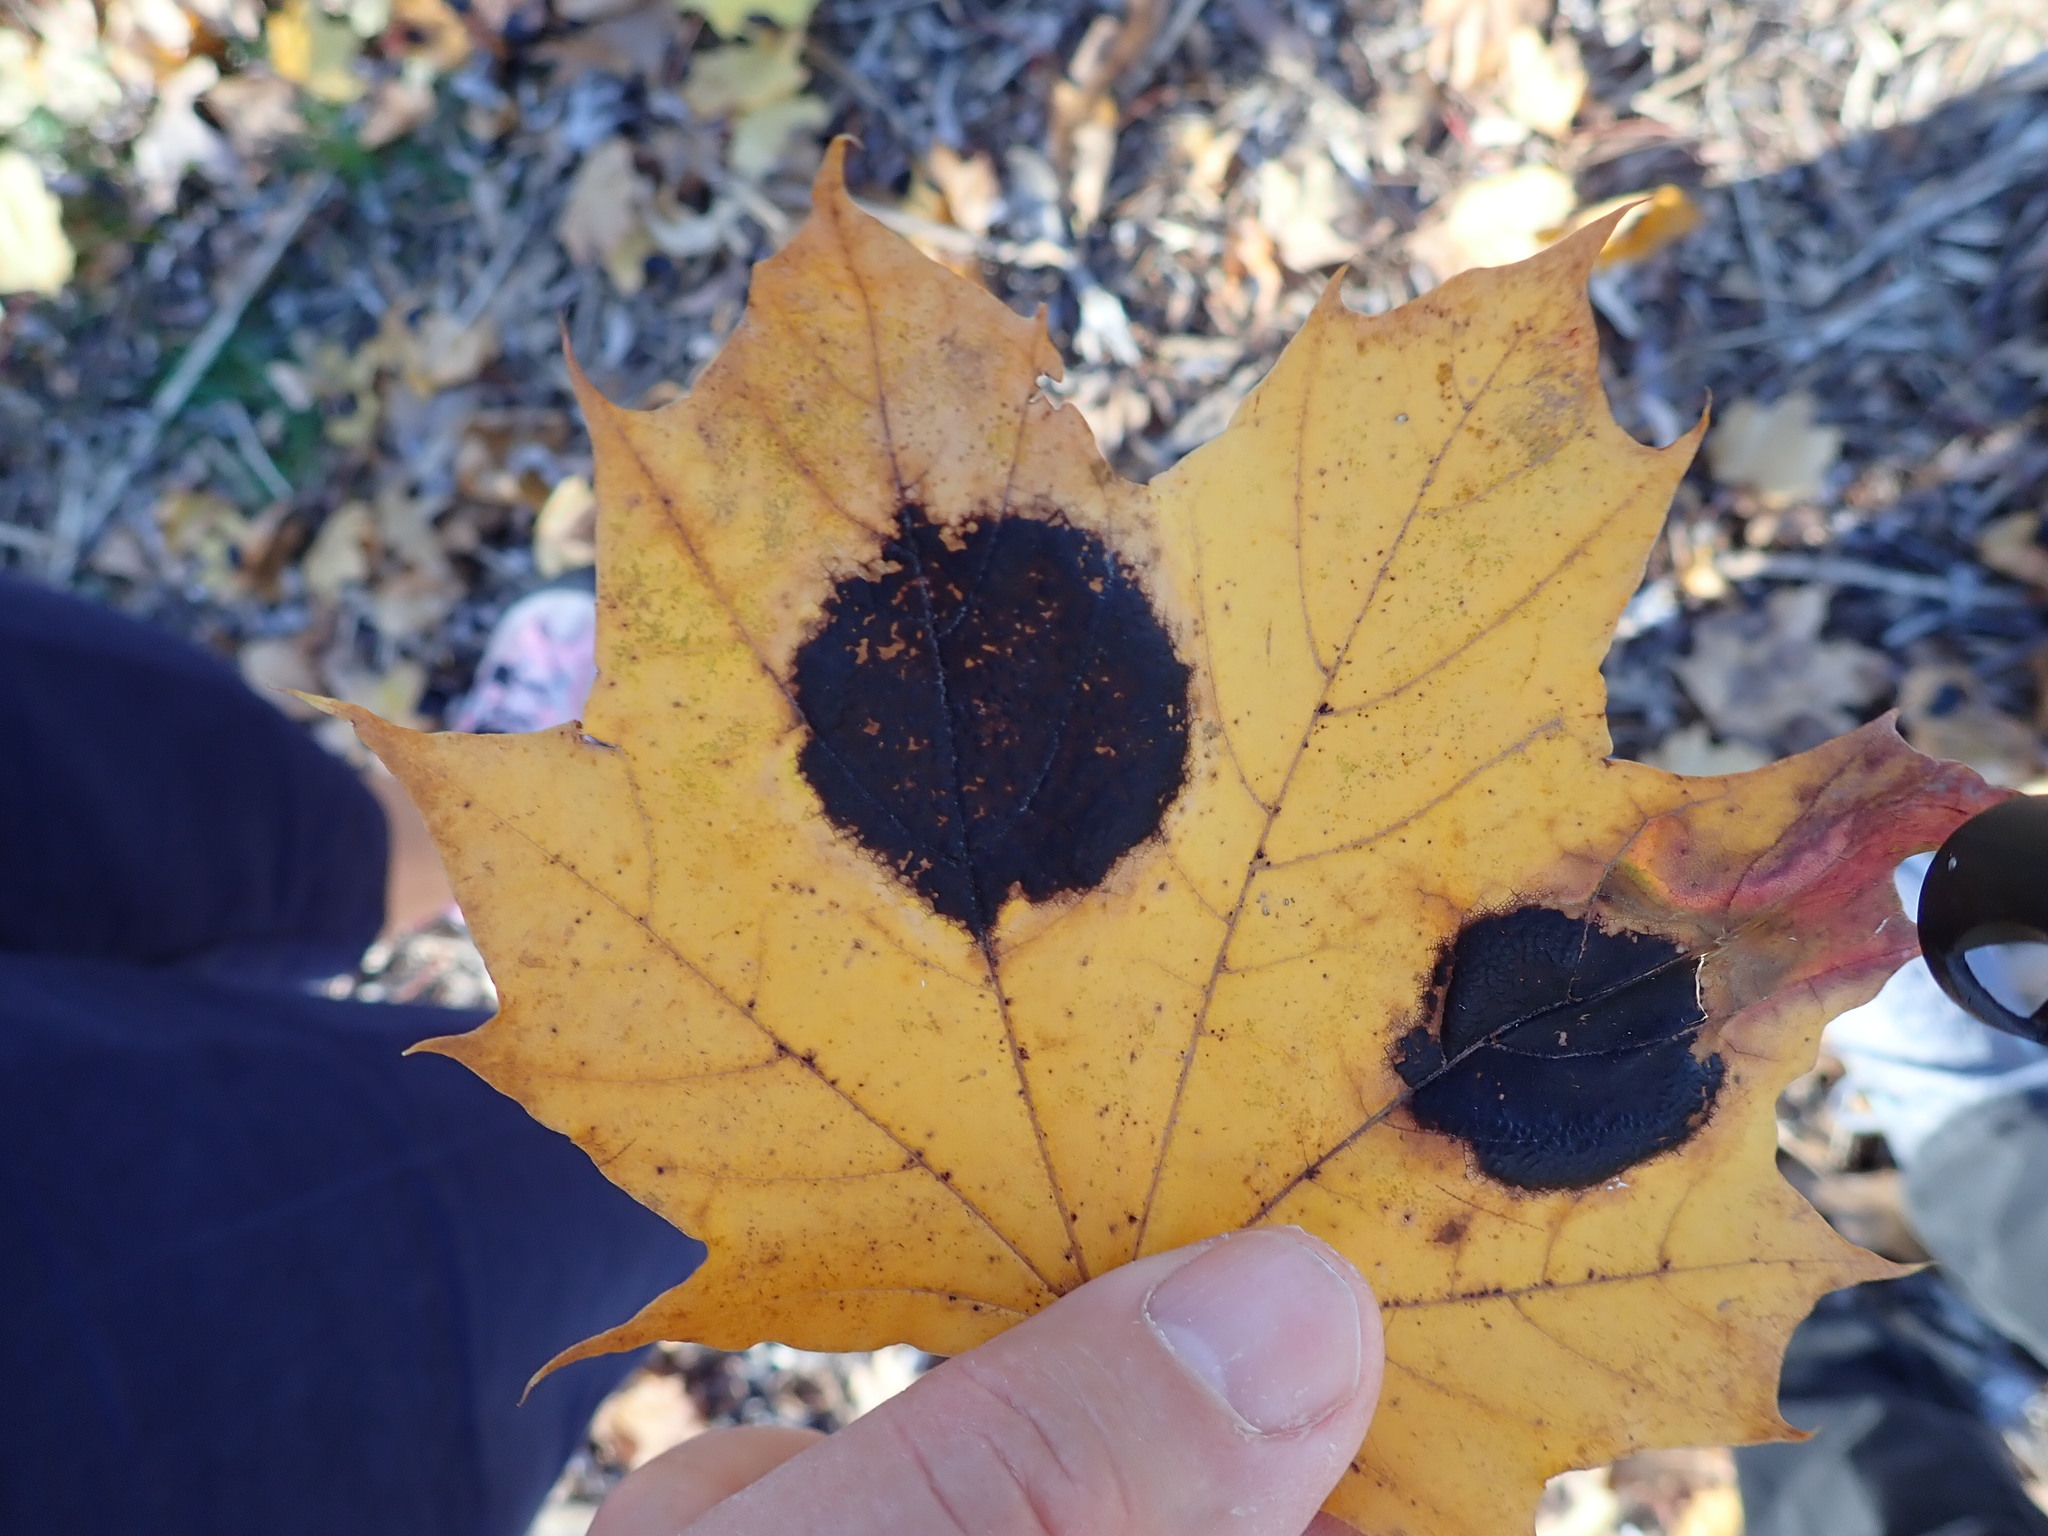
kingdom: Fungi
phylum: Ascomycota
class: Leotiomycetes
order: Rhytismatales
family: Rhytismataceae
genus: Rhytisma
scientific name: Rhytisma acerinum
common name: European tar spot
